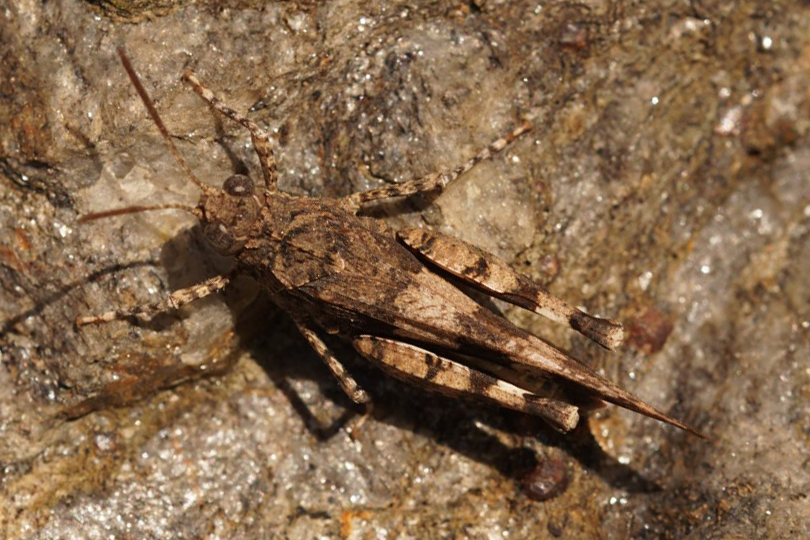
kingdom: Animalia
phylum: Arthropoda
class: Insecta
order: Orthoptera
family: Acrididae
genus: Oedipoda
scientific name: Oedipoda caerulescens
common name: Blue-winged grasshopper
